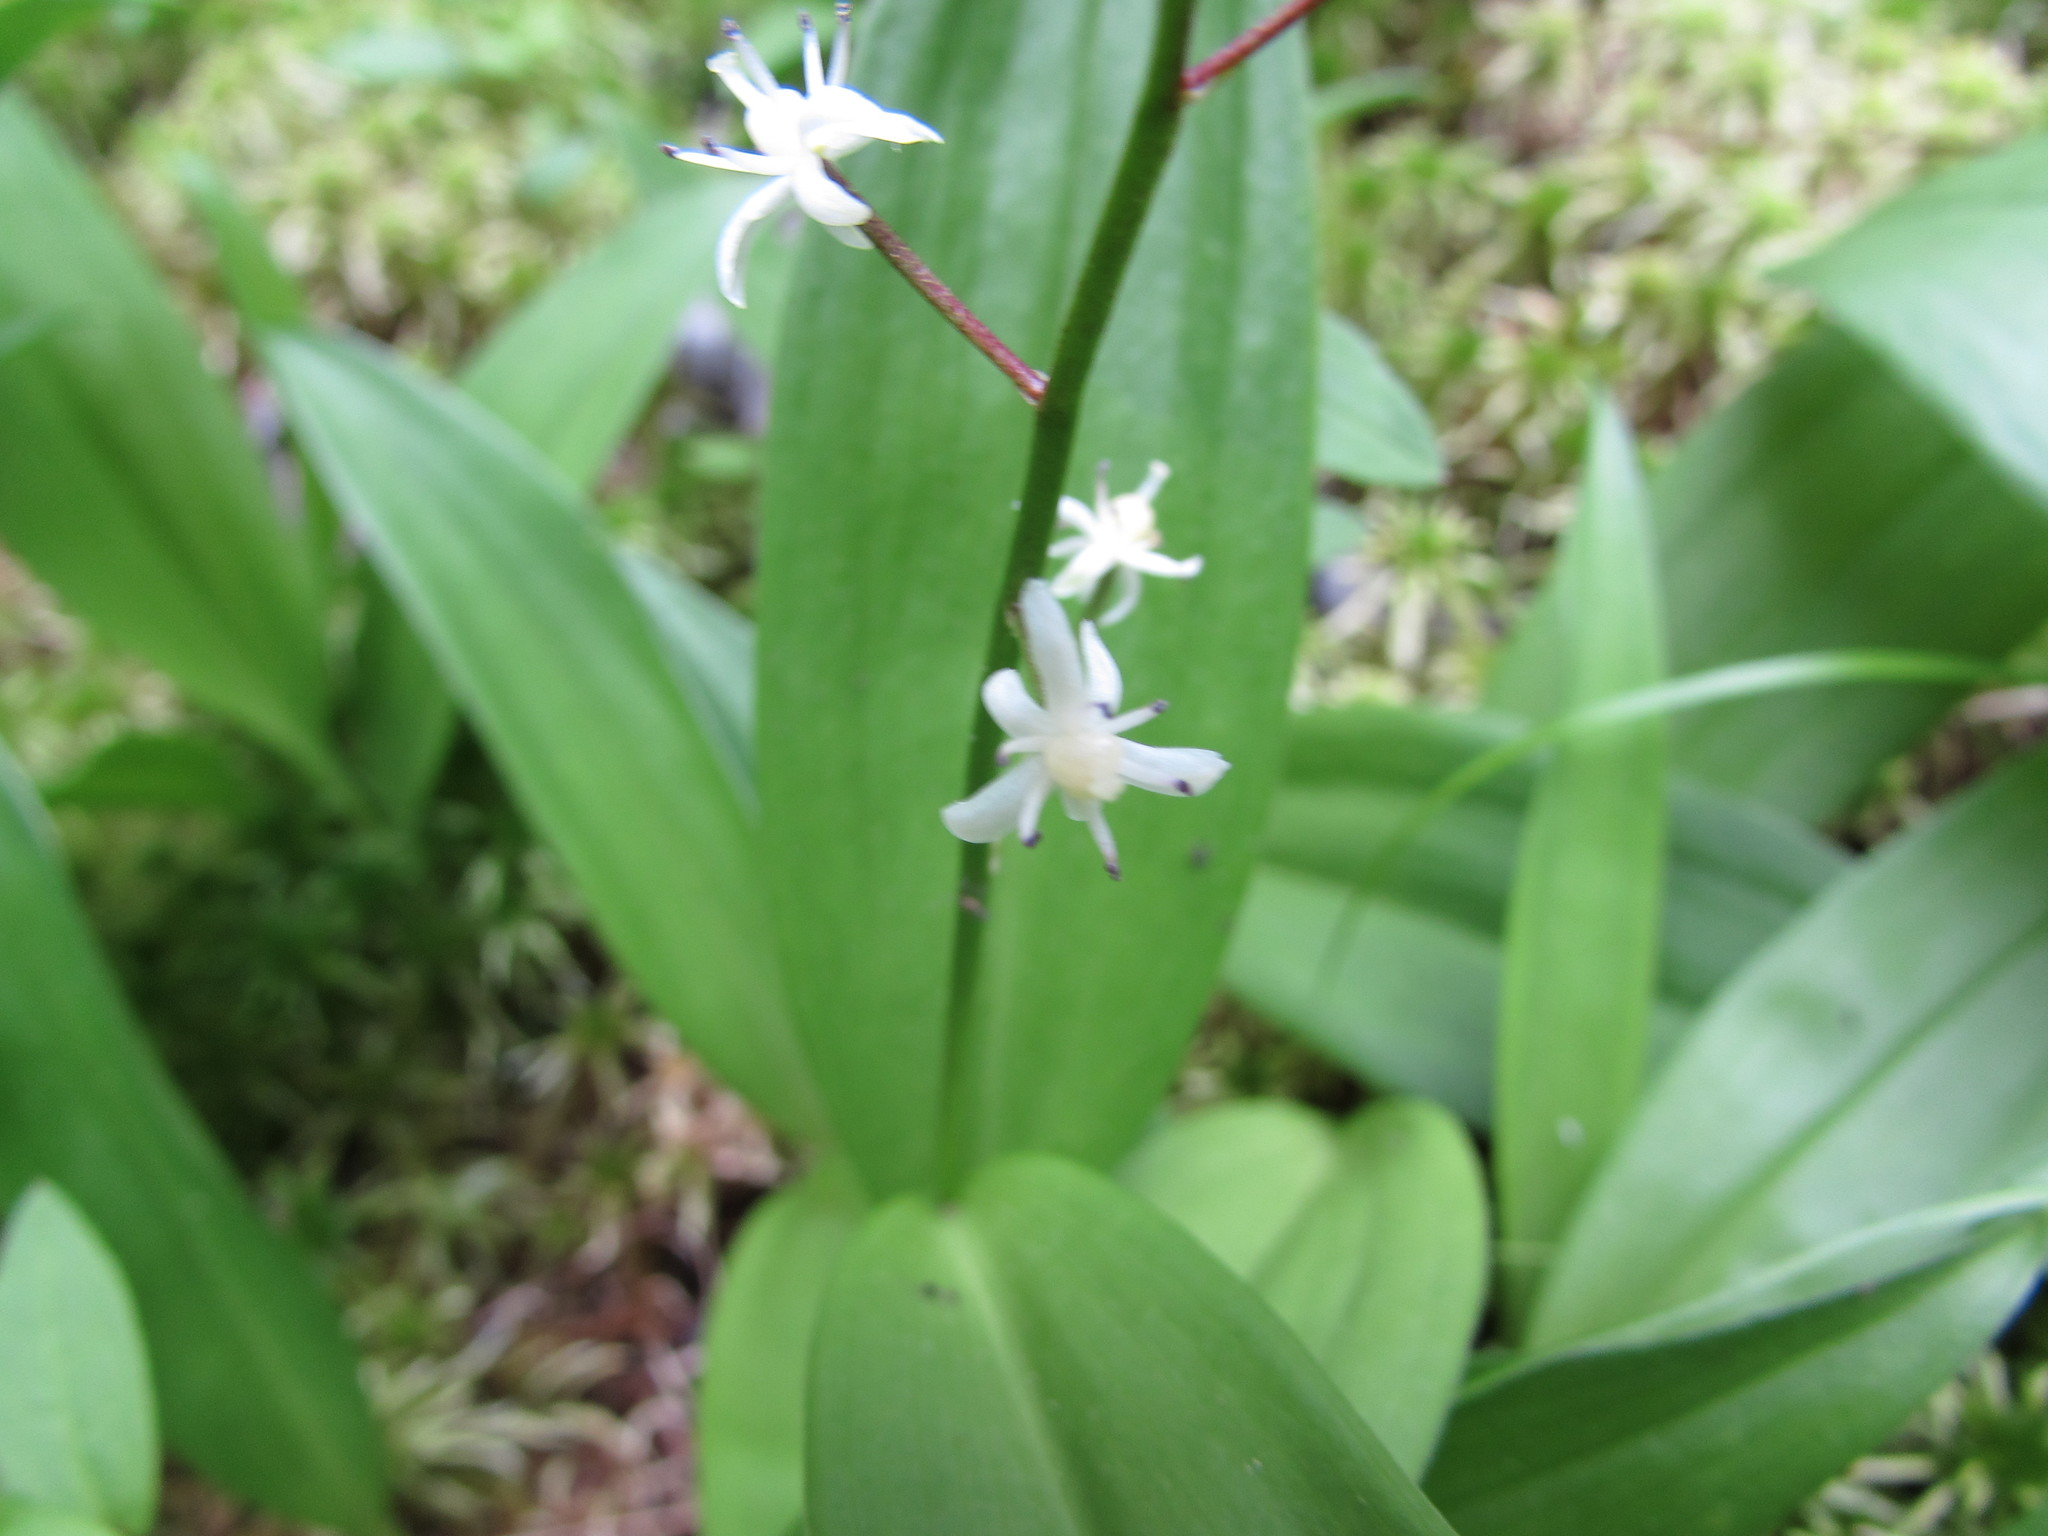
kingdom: Plantae
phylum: Tracheophyta
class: Liliopsida
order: Asparagales
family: Asparagaceae
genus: Maianthemum
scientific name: Maianthemum trifolium
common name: Swamp false solomon's seal
